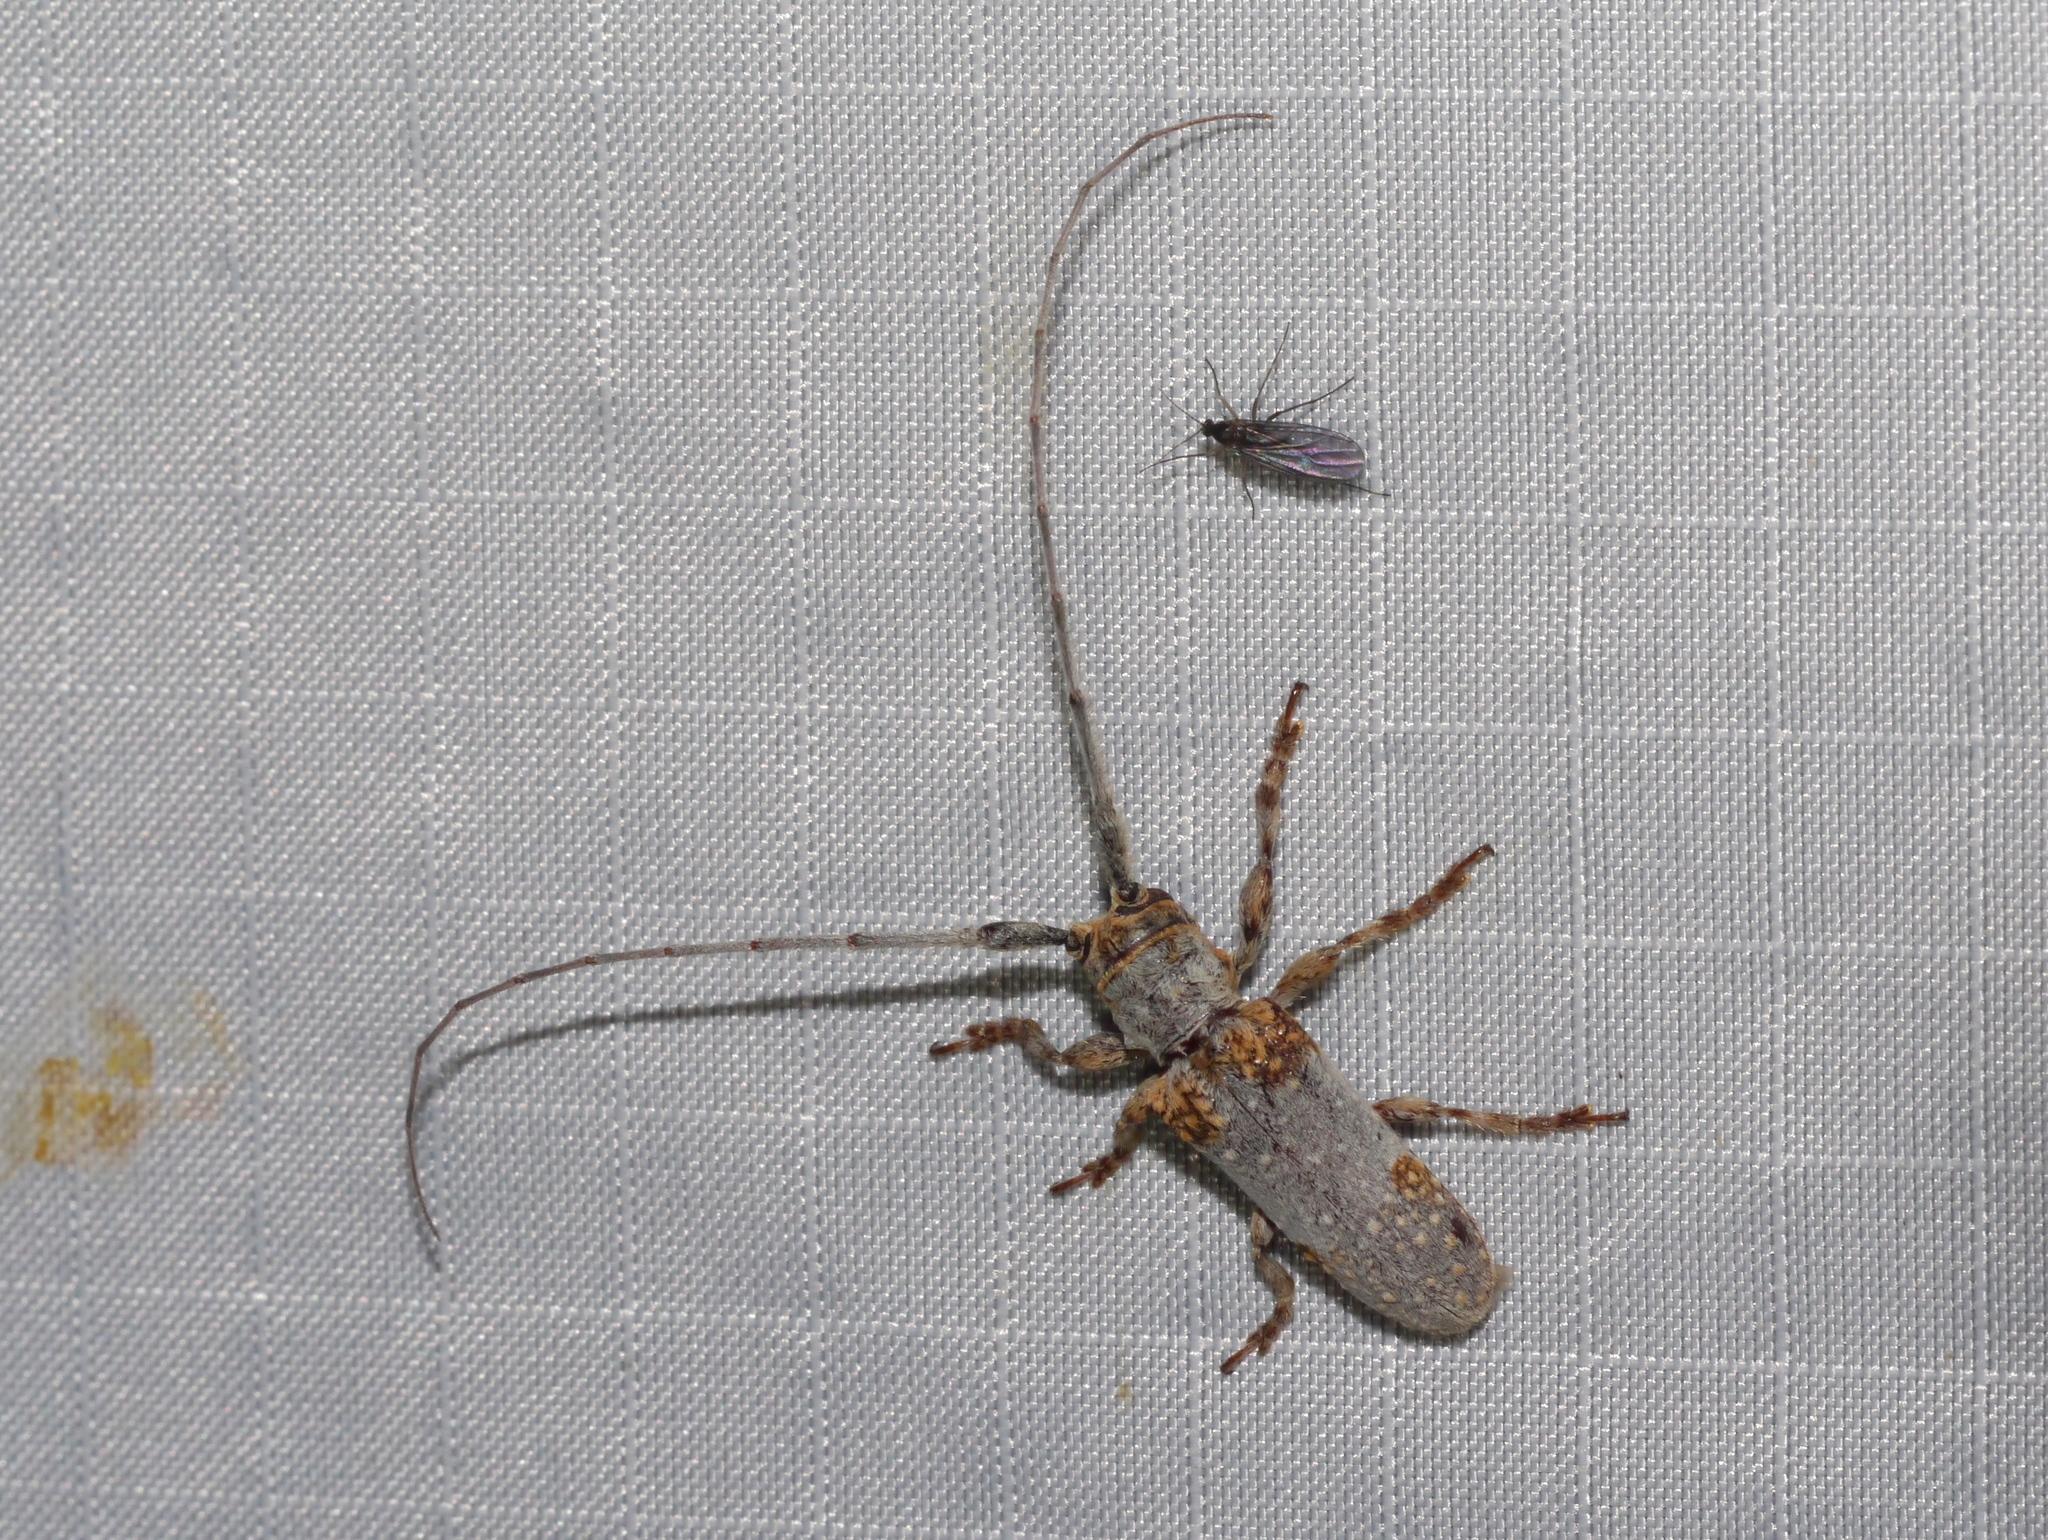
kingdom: Animalia
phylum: Arthropoda
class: Insecta
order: Coleoptera
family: Cerambycidae
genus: Oncideres
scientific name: Oncideres quercus
